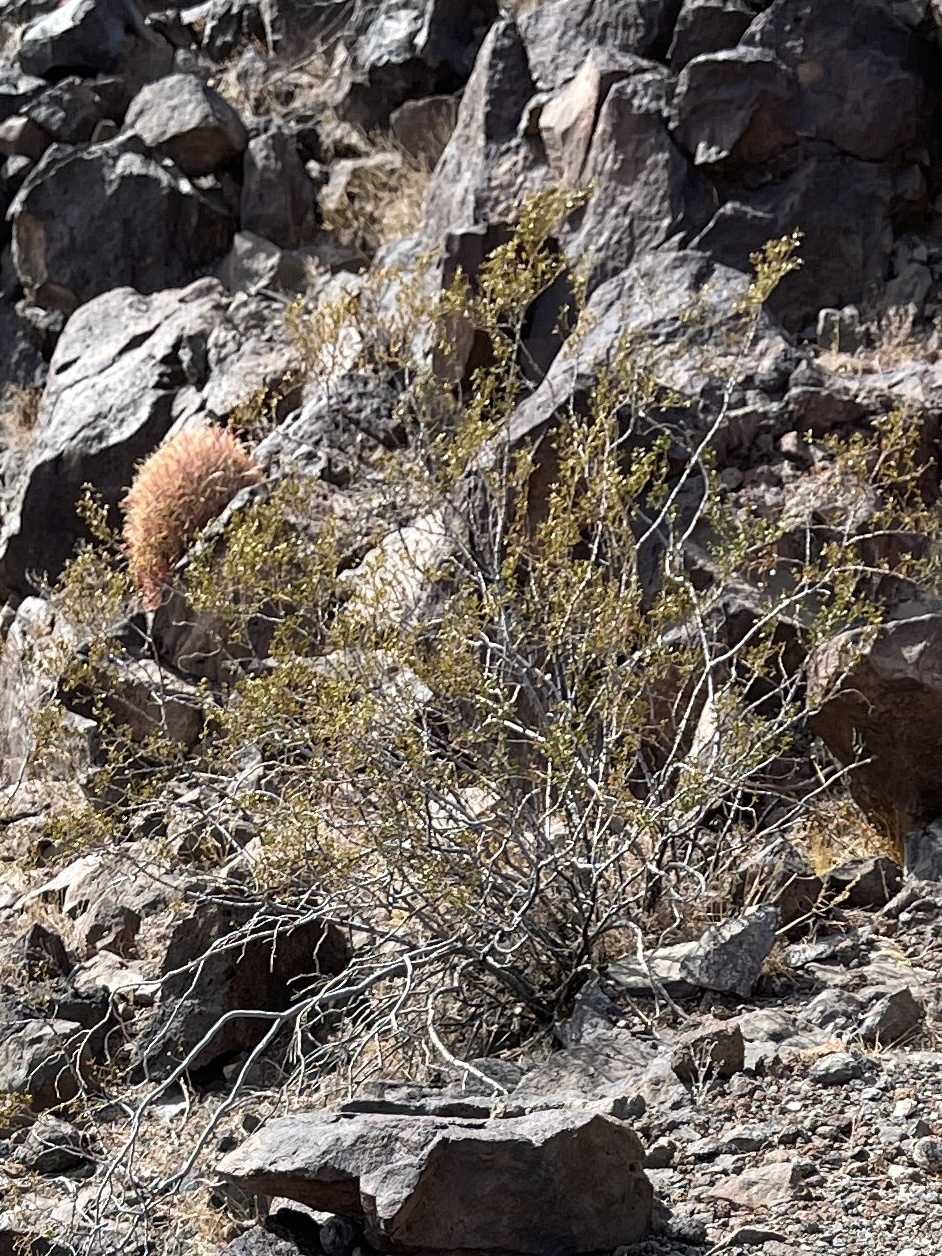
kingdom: Plantae
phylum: Tracheophyta
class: Magnoliopsida
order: Zygophyllales
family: Zygophyllaceae
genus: Larrea
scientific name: Larrea tridentata
